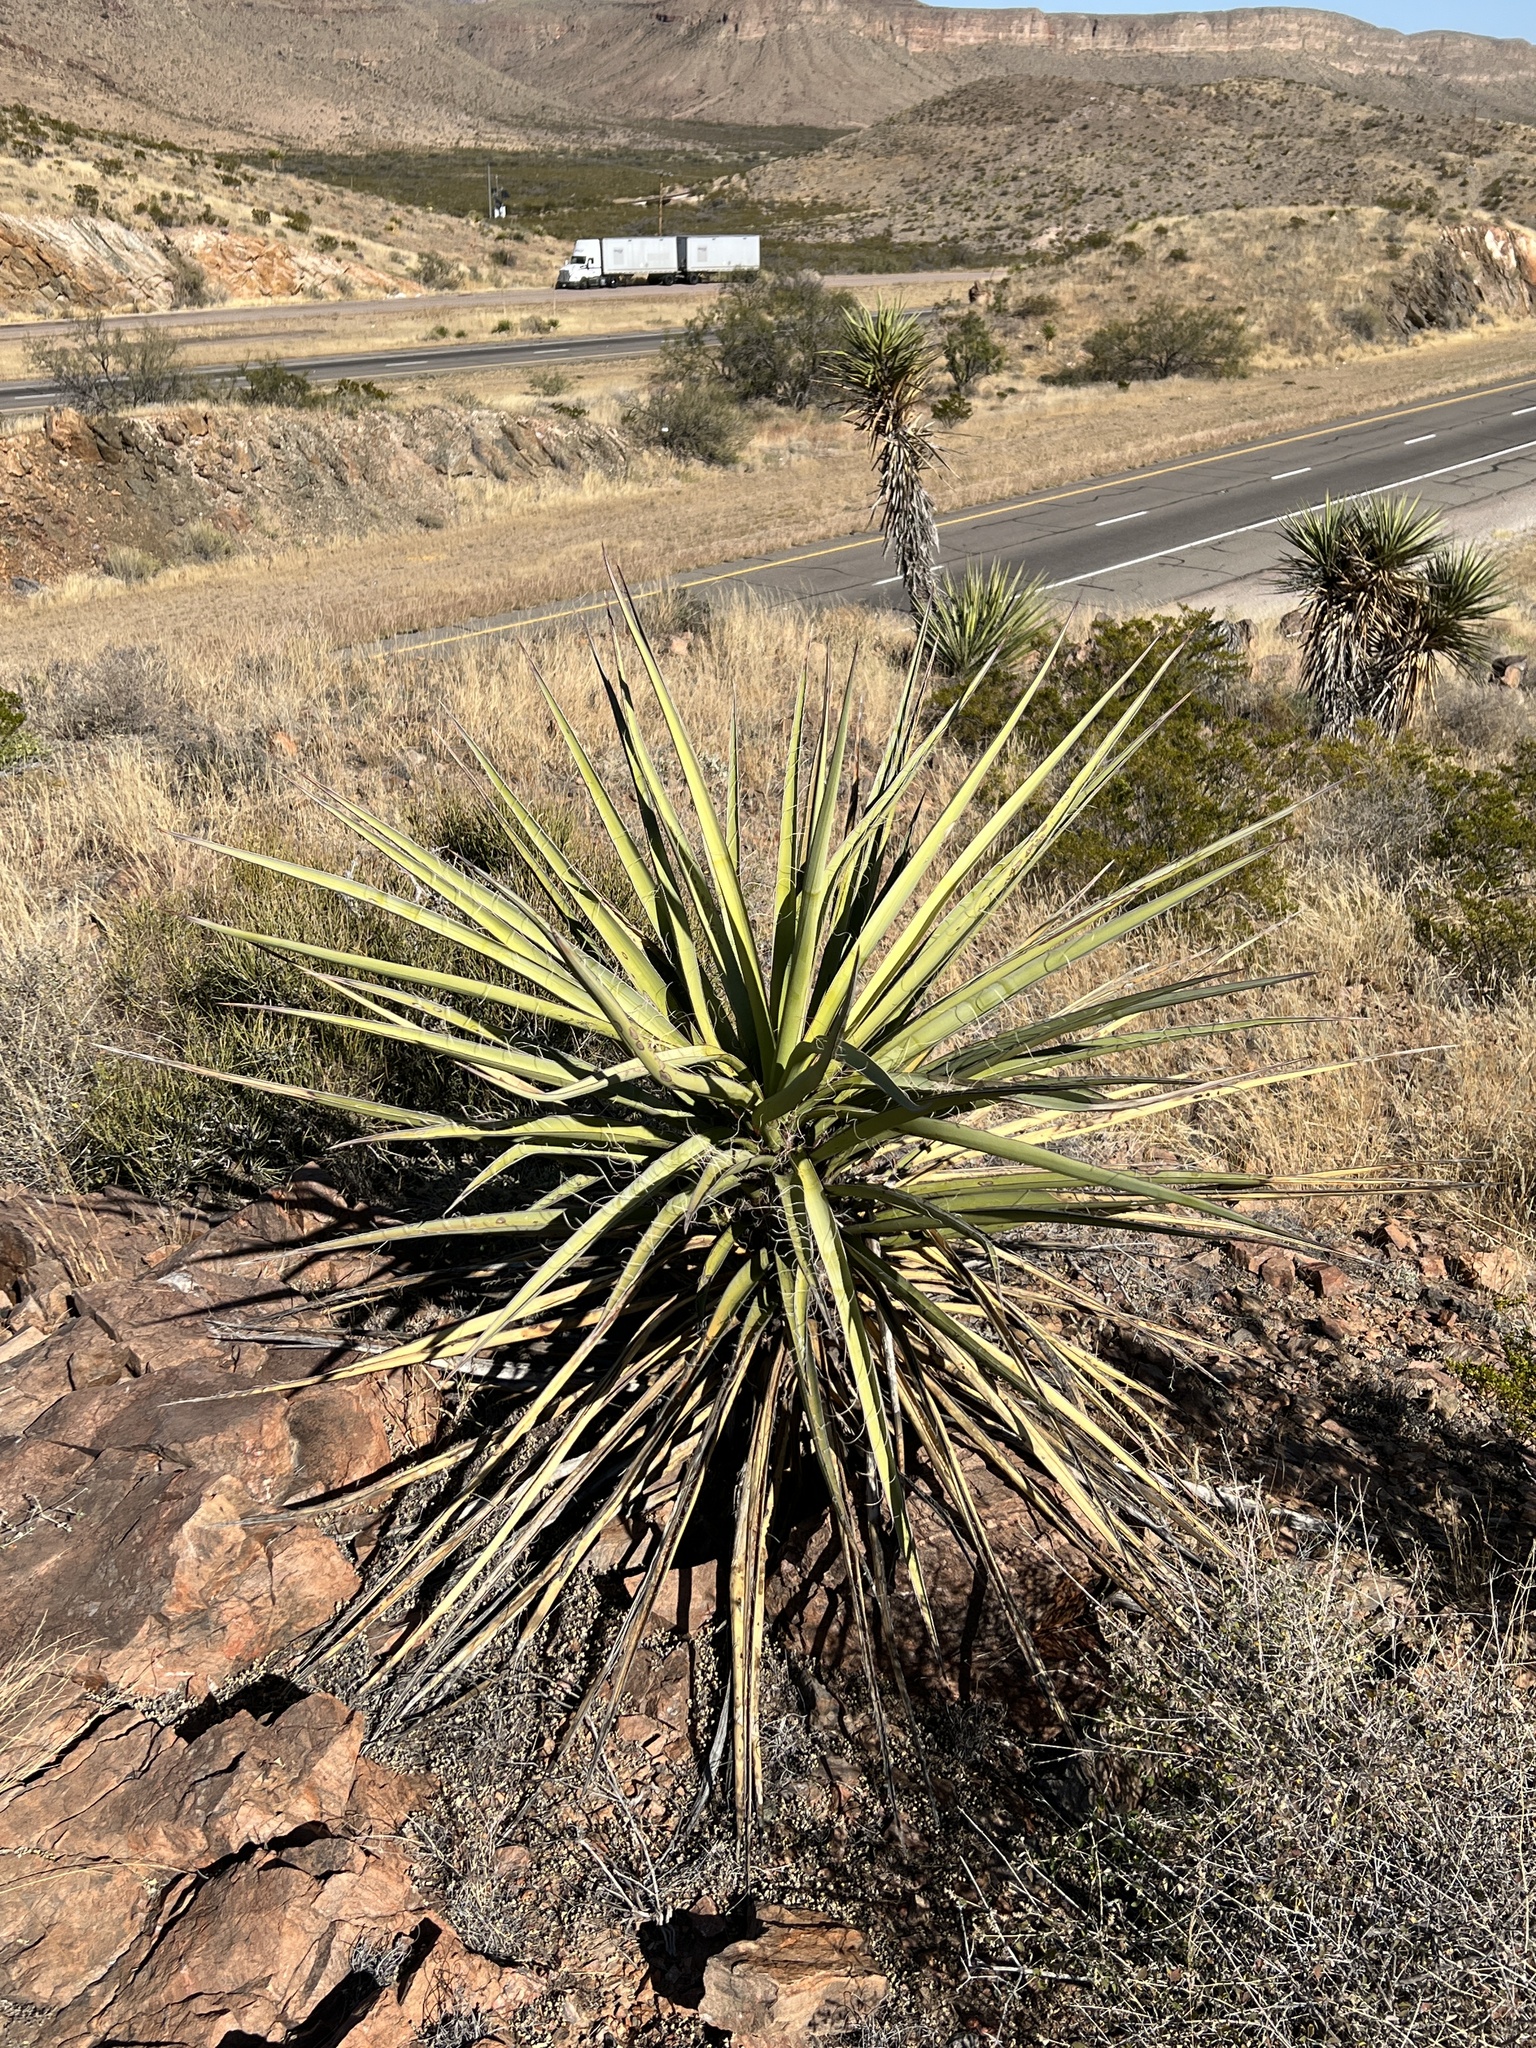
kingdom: Plantae
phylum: Tracheophyta
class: Liliopsida
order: Asparagales
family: Asparagaceae
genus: Yucca
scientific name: Yucca treculiana
